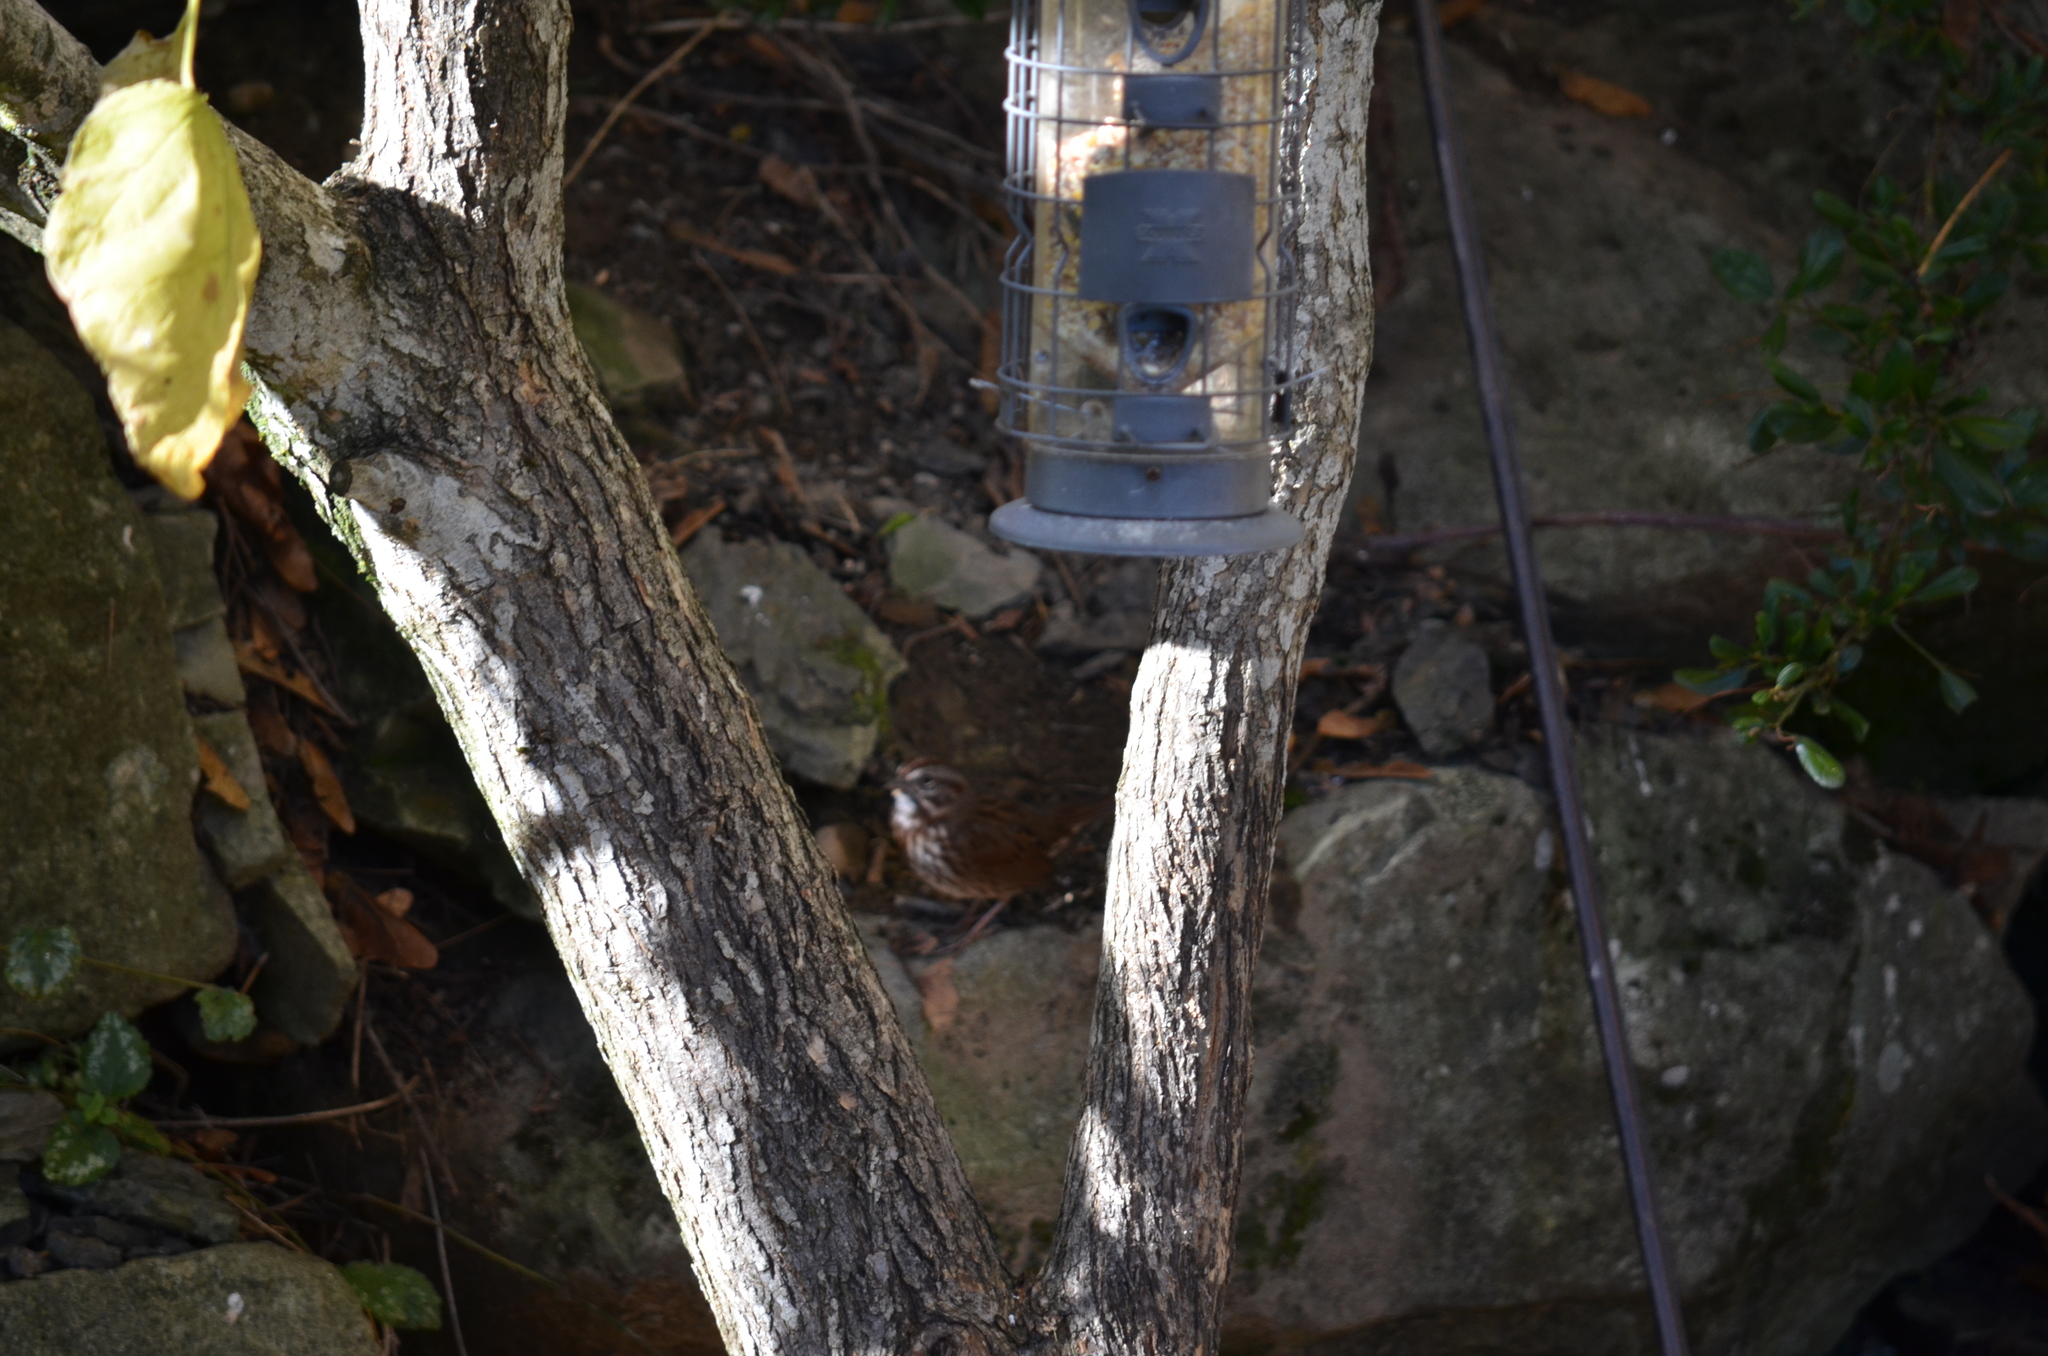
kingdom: Animalia
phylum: Chordata
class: Aves
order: Passeriformes
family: Passerellidae
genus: Melospiza
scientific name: Melospiza melodia
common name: Song sparrow
